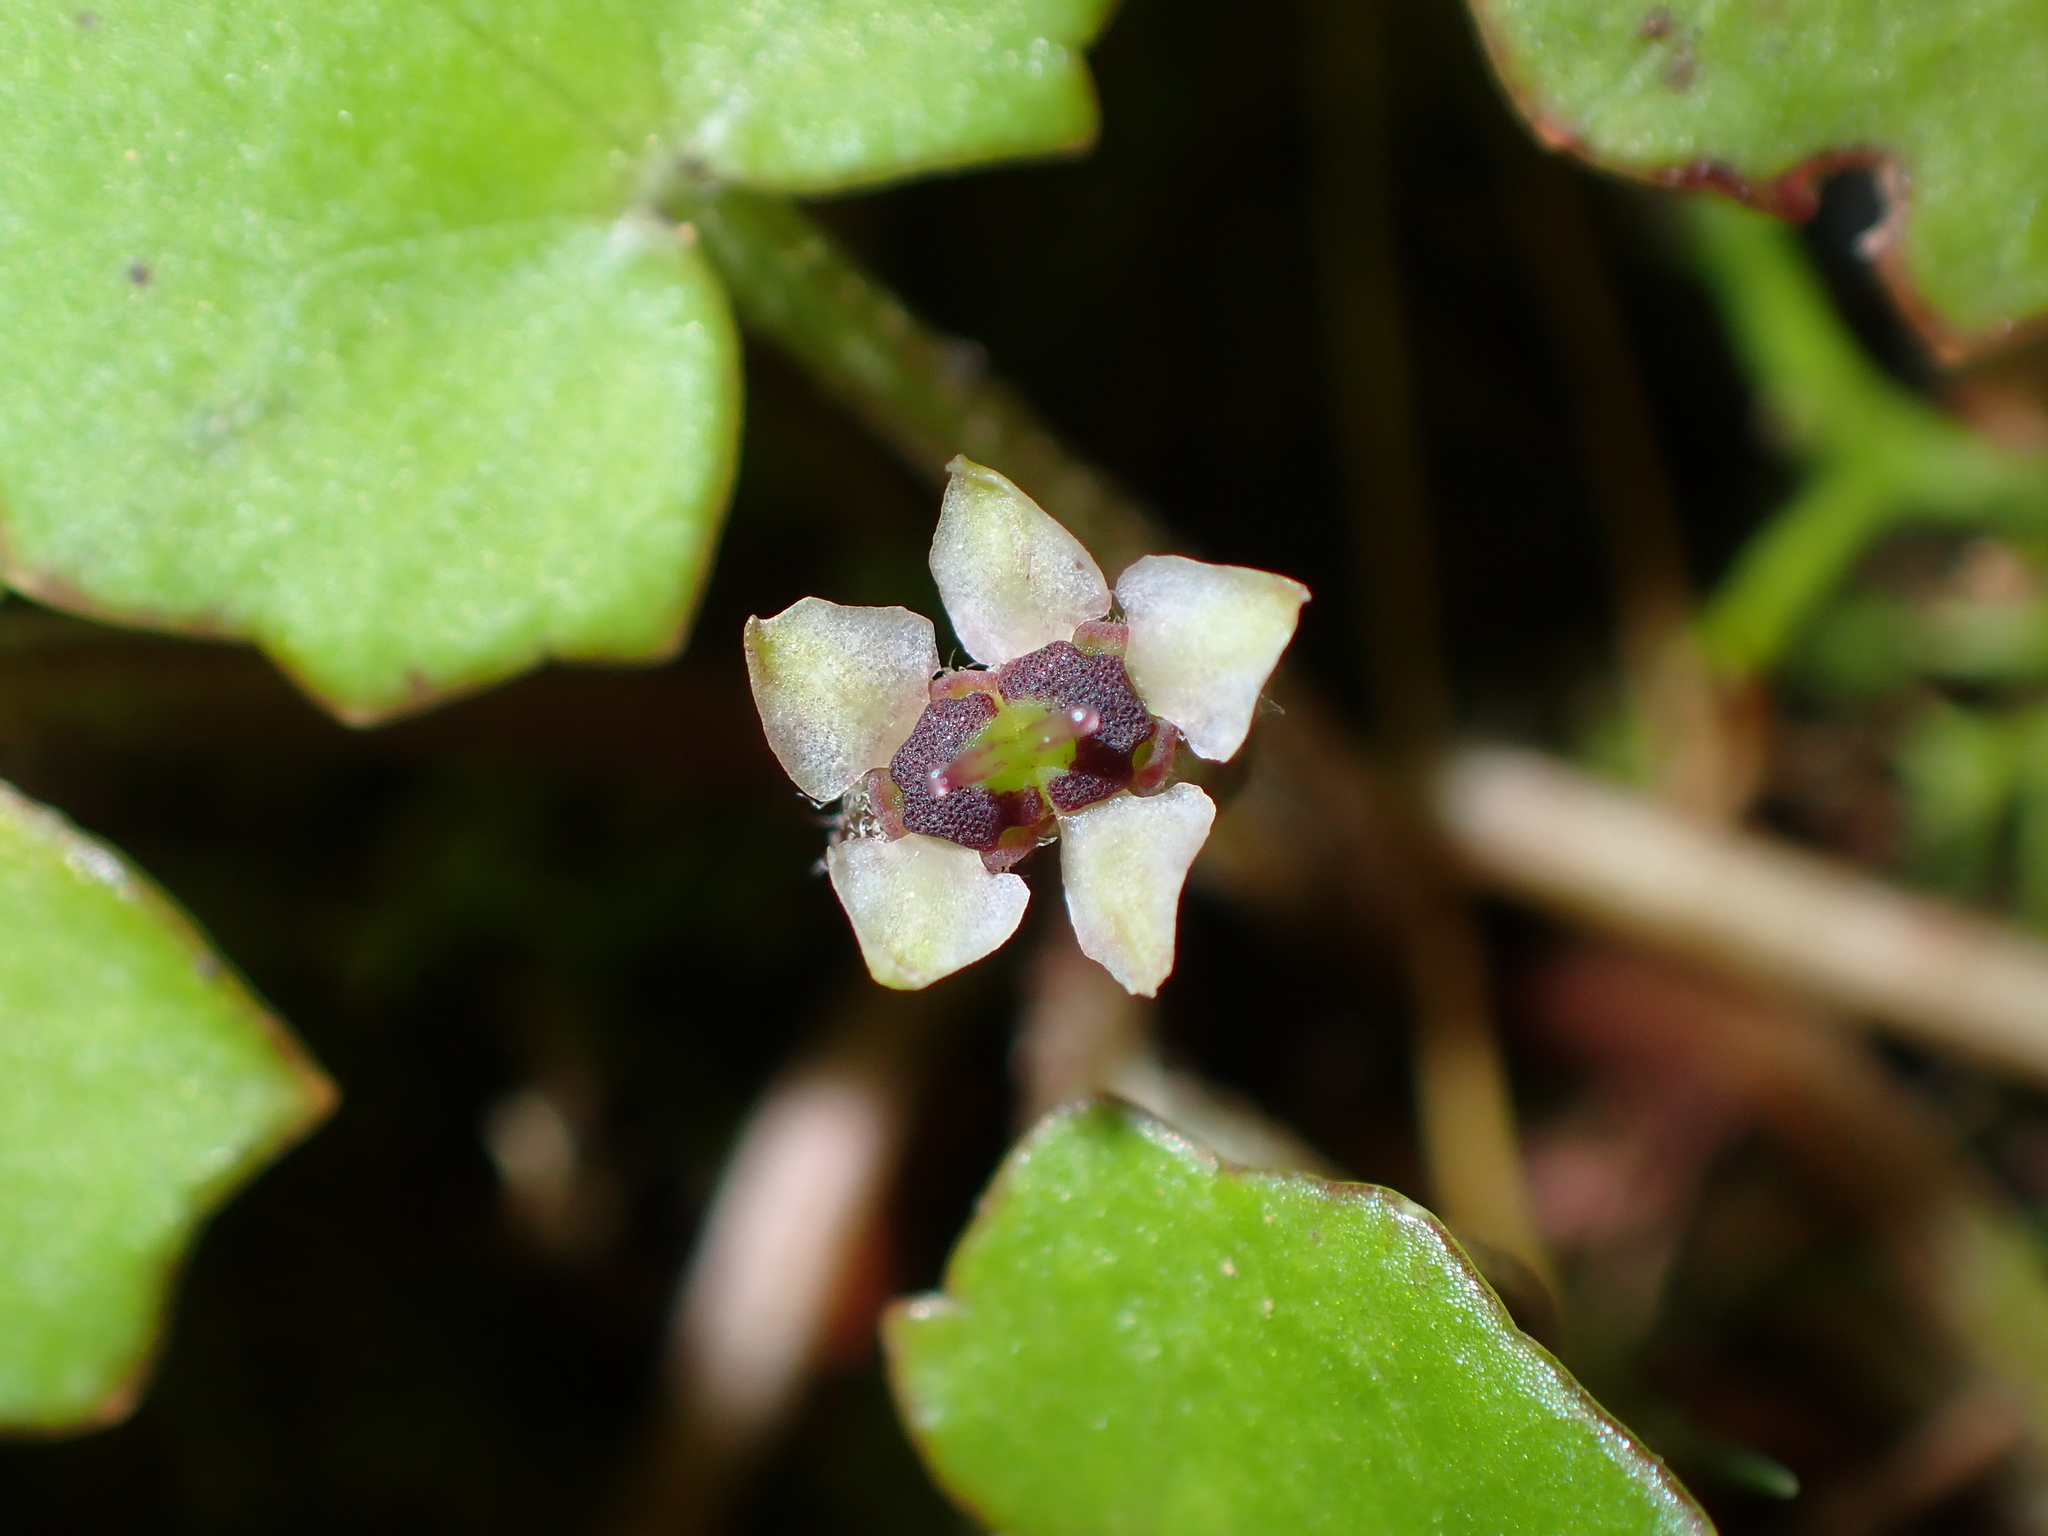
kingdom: Plantae
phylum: Tracheophyta
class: Magnoliopsida
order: Apiales
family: Apiaceae
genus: Centella
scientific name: Centella uniflora
